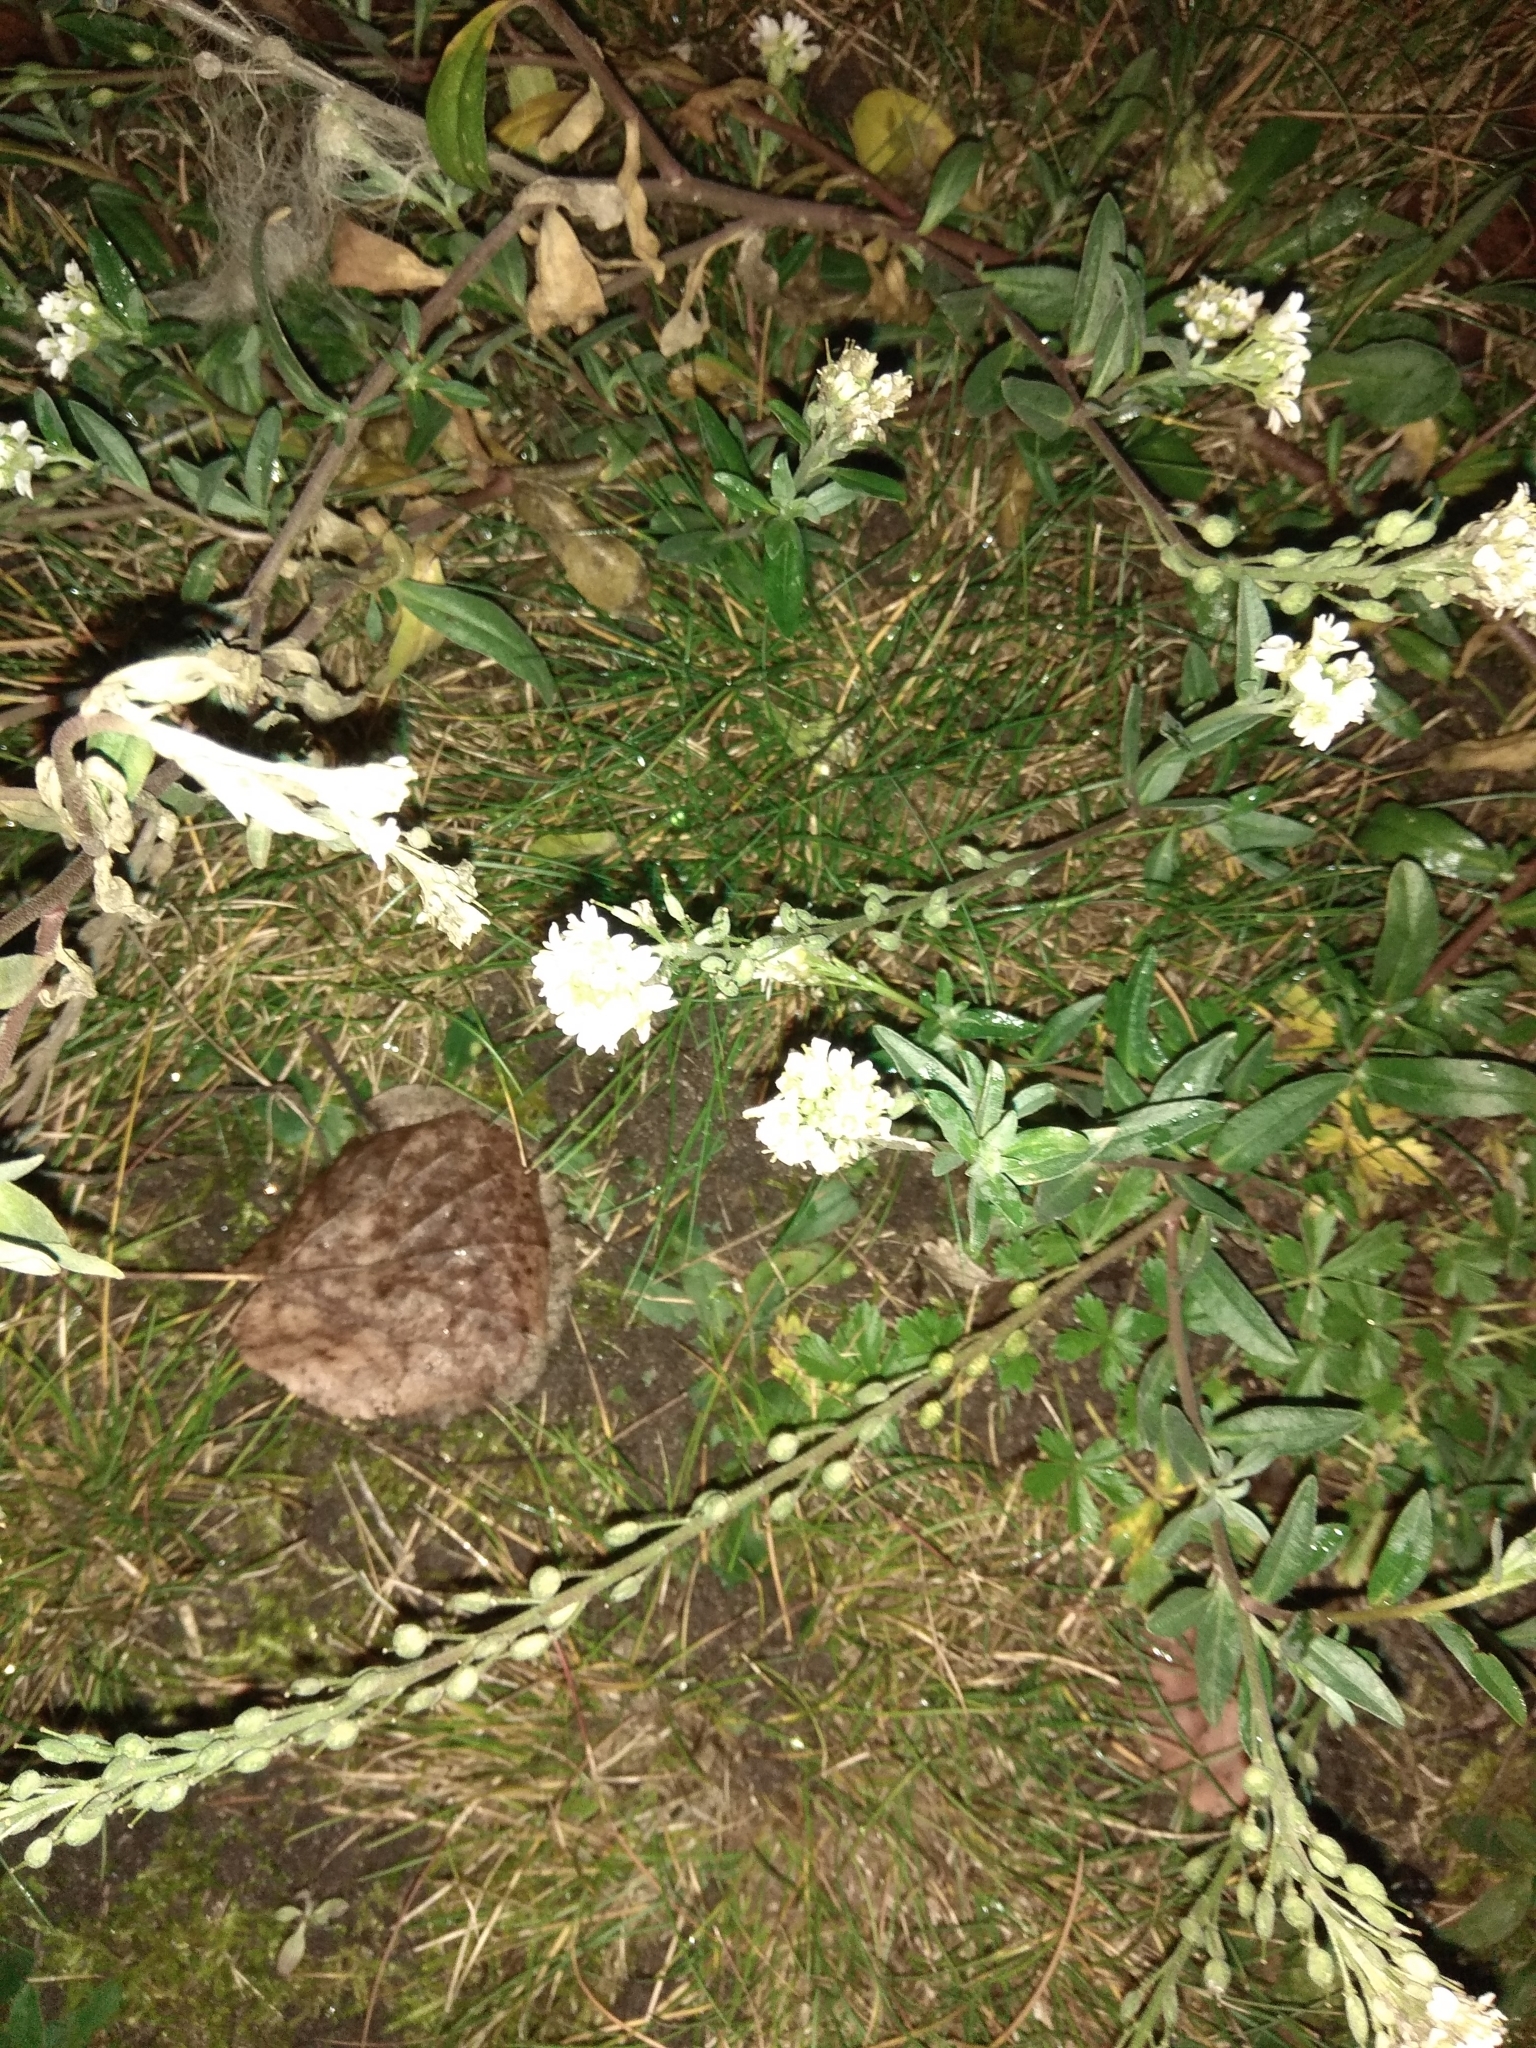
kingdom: Plantae
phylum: Tracheophyta
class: Magnoliopsida
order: Brassicales
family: Brassicaceae
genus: Berteroa
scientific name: Berteroa incana
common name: Hoary alison
